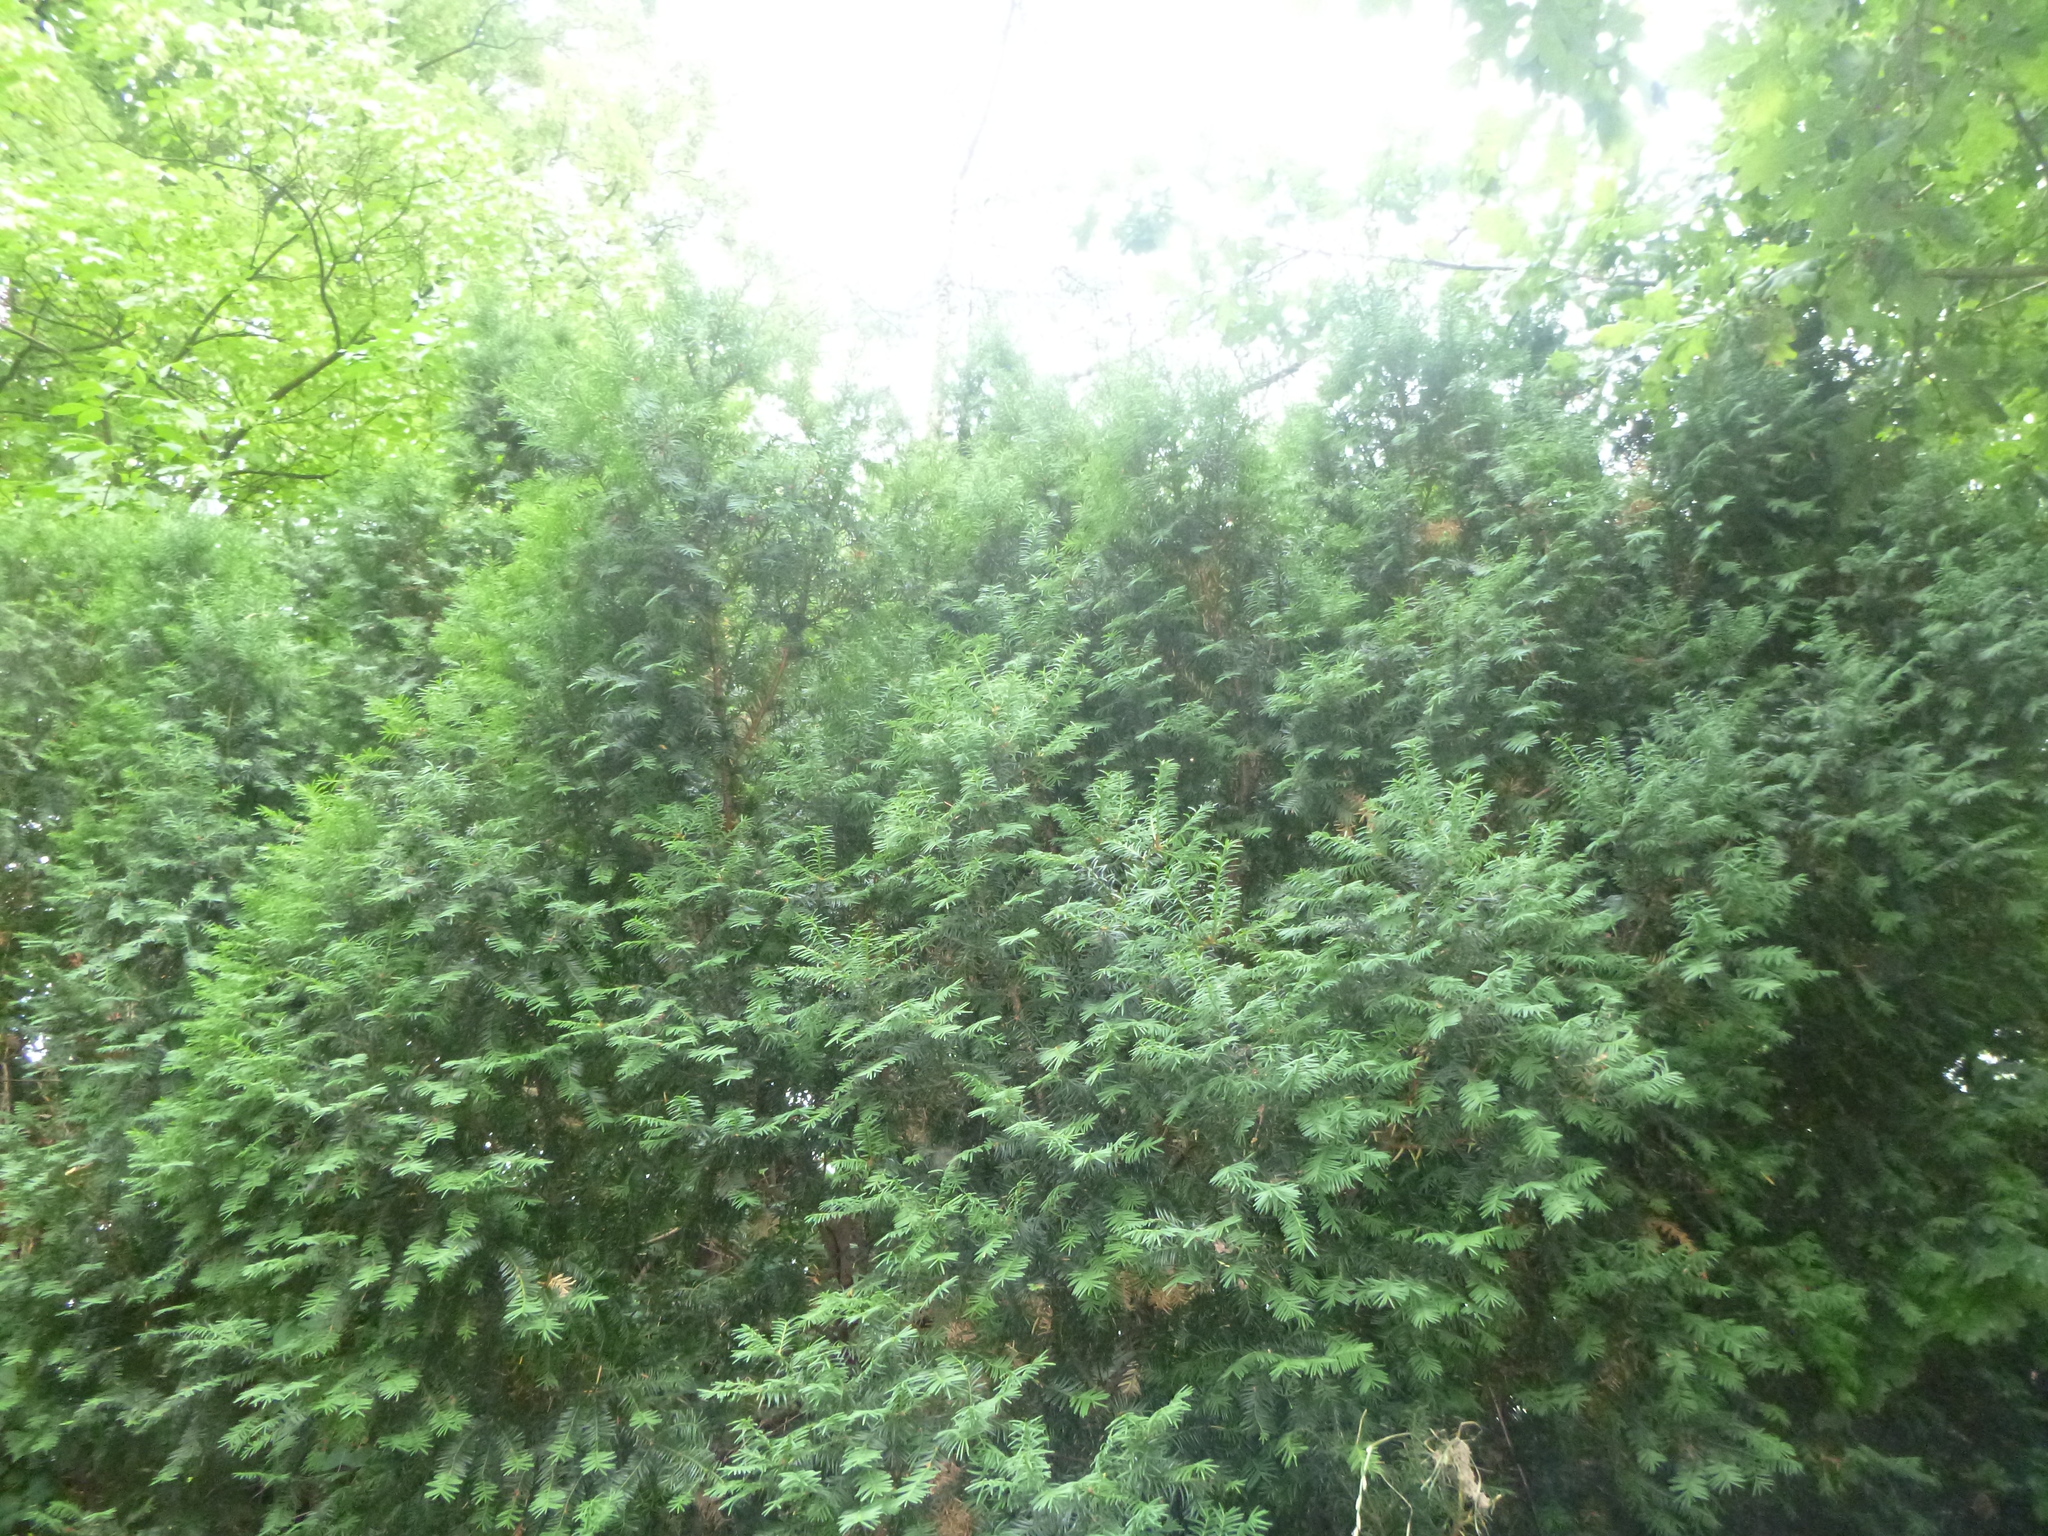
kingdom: Plantae
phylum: Tracheophyta
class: Pinopsida
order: Pinales
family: Taxaceae
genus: Taxus
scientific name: Taxus baccata
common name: Yew
